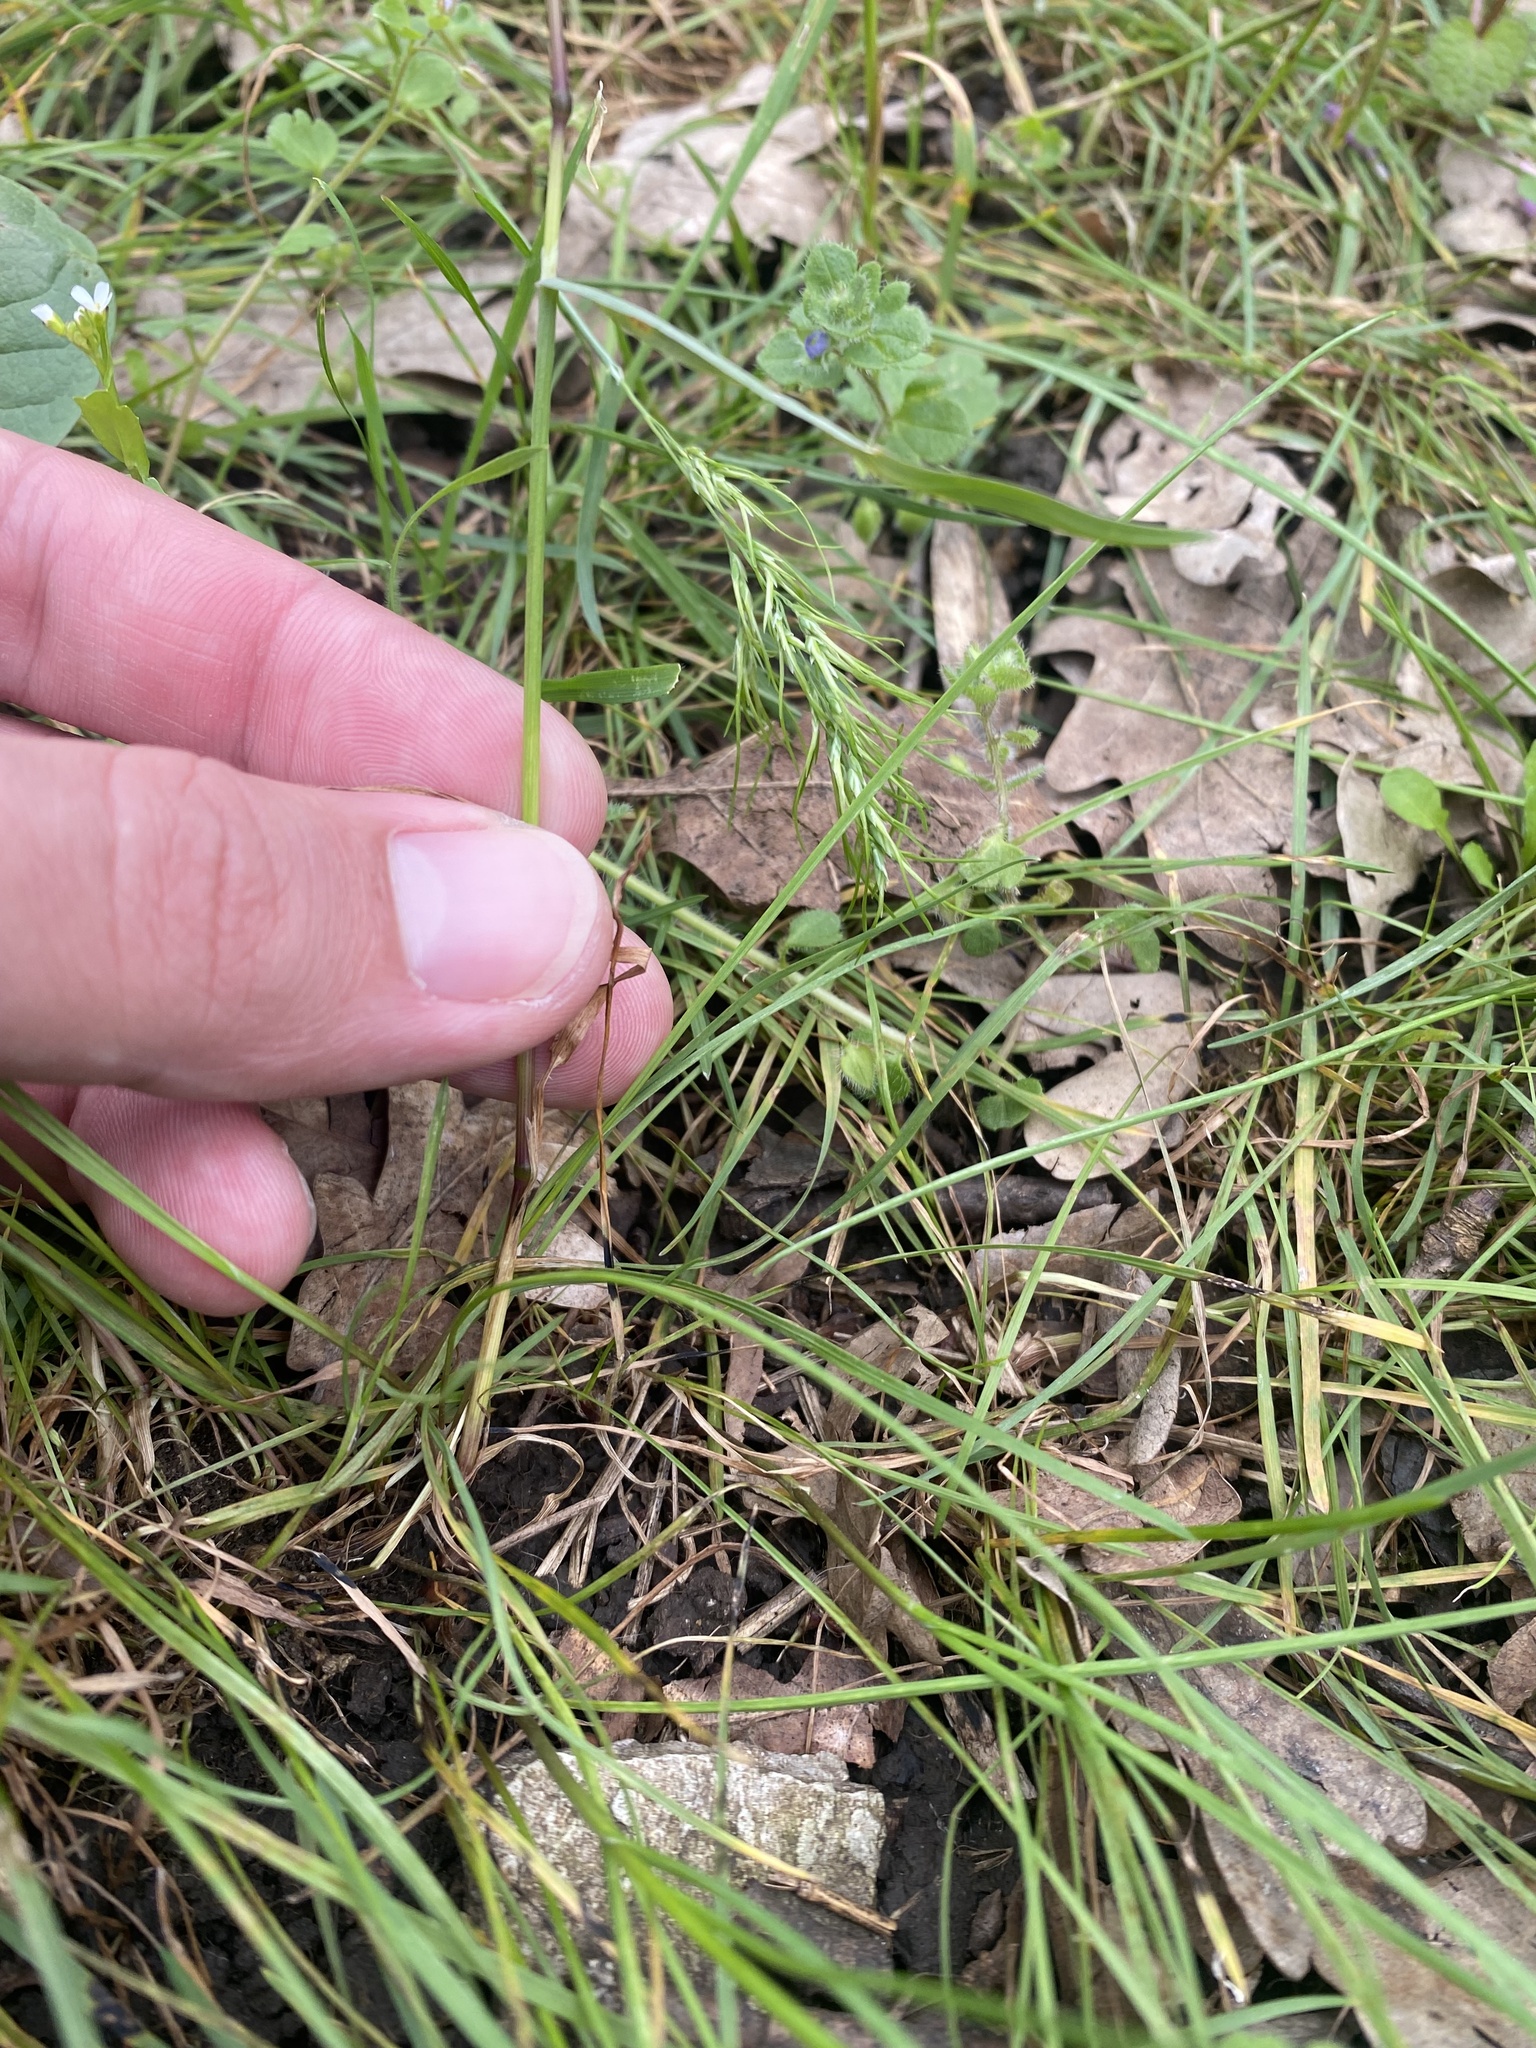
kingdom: Plantae
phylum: Tracheophyta
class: Liliopsida
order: Poales
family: Poaceae
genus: Poa
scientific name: Poa bulbosa
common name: Bulbous bluegrass
